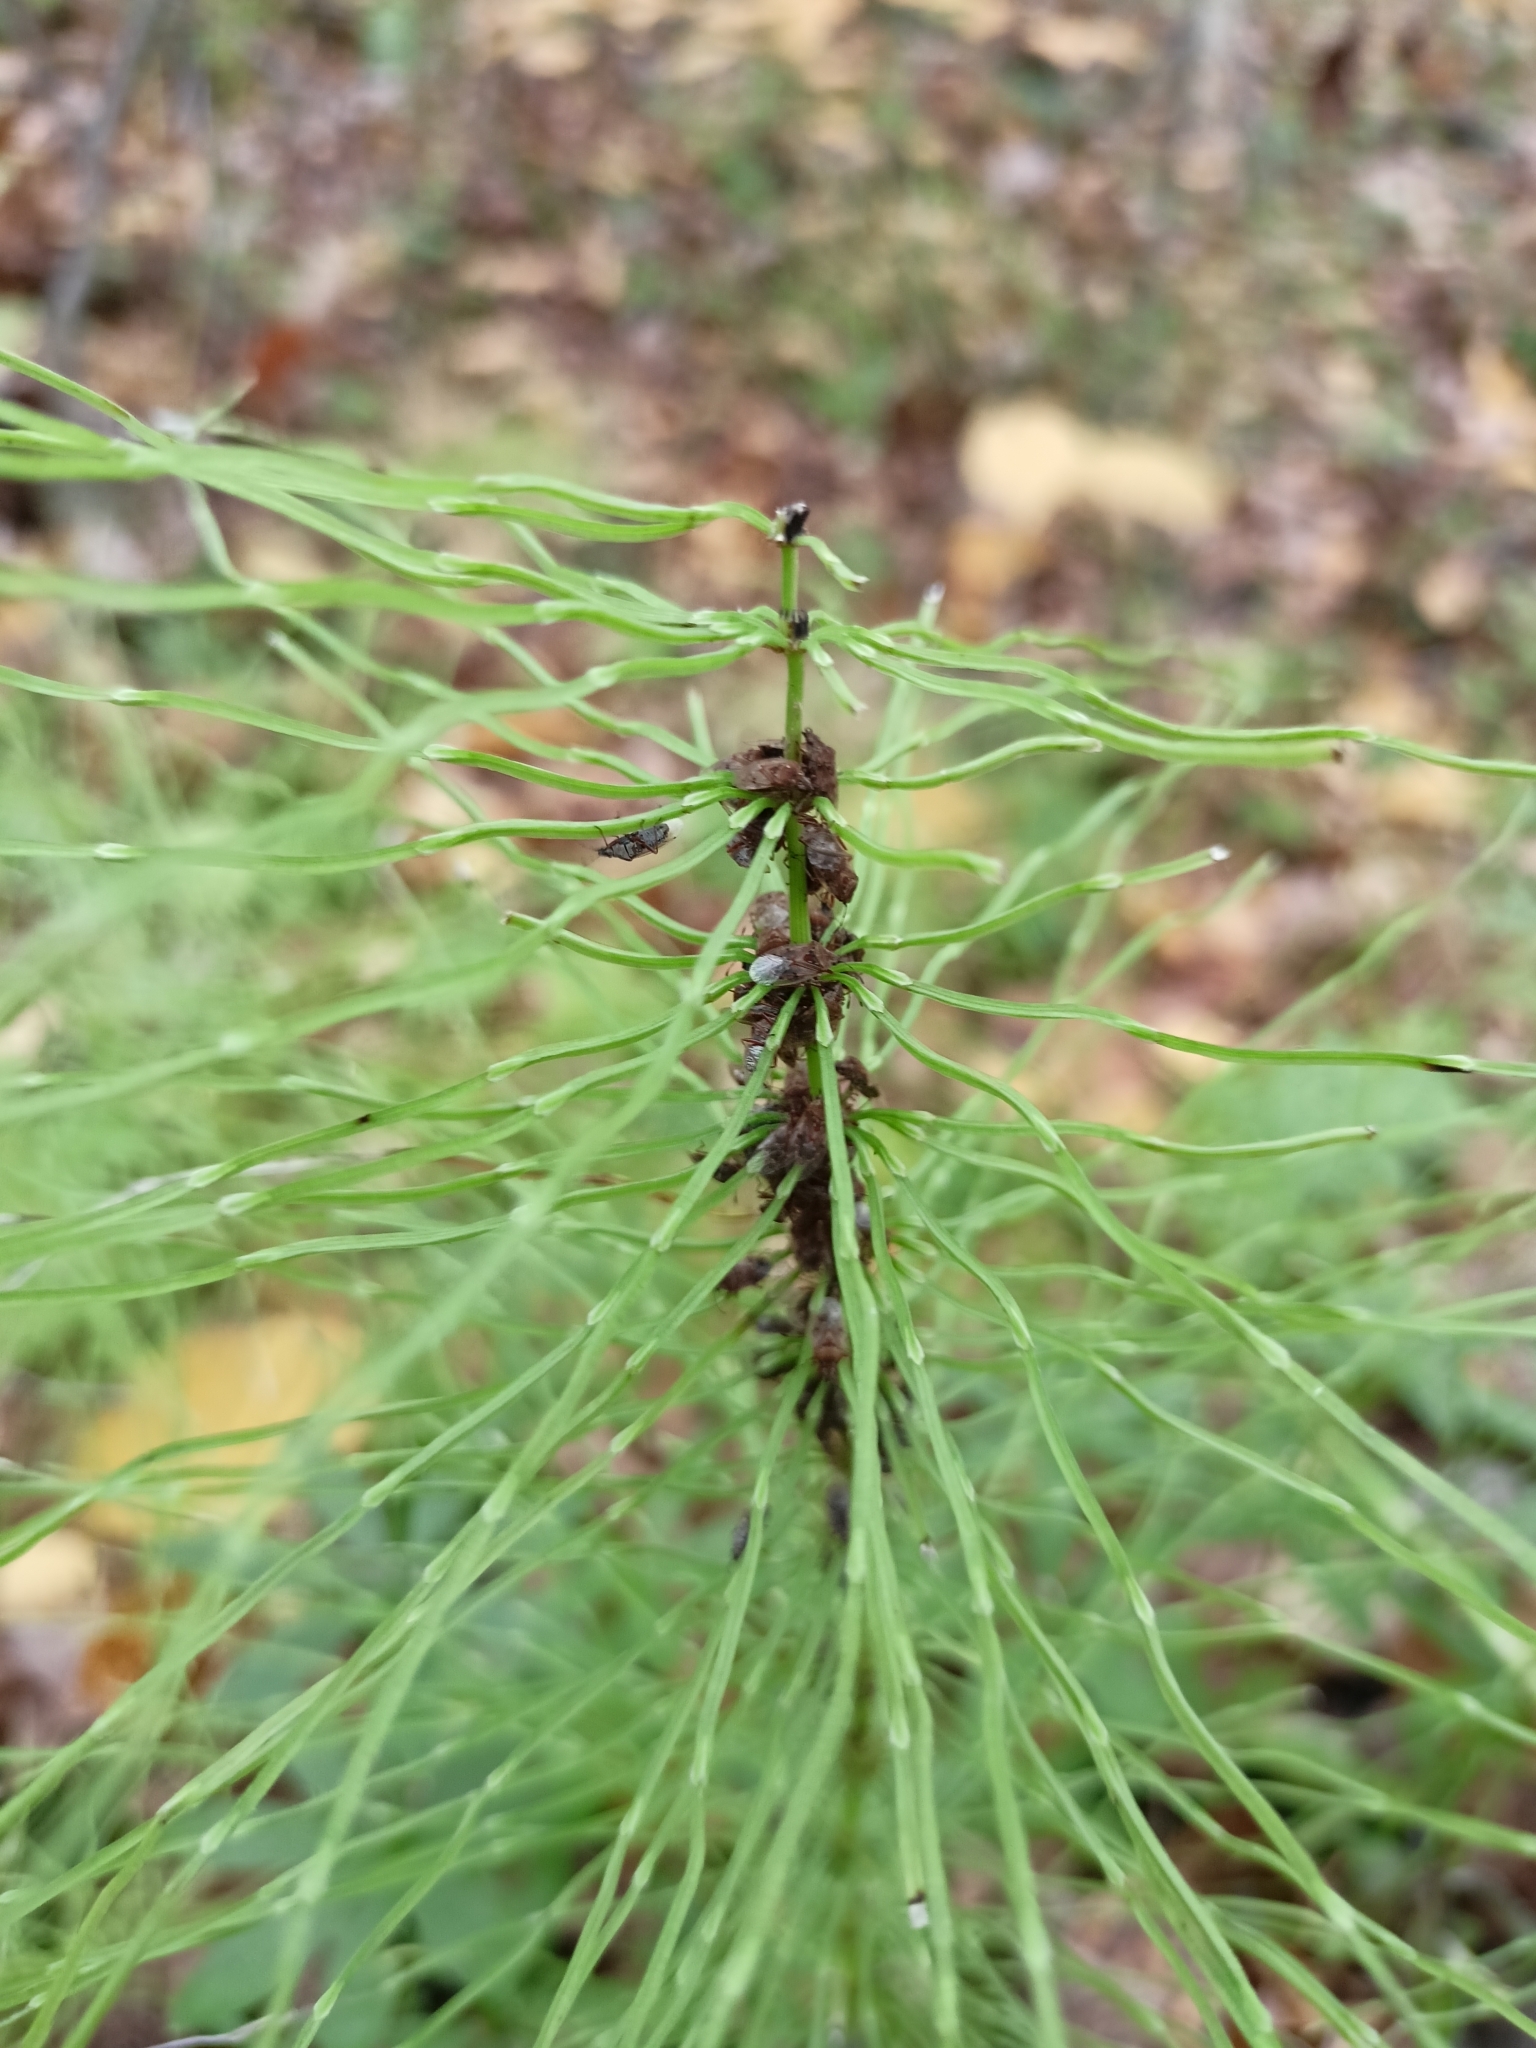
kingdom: Plantae
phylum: Tracheophyta
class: Polypodiopsida
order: Equisetales
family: Equisetaceae
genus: Equisetum
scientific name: Equisetum pratense
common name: Meadow horsetail
